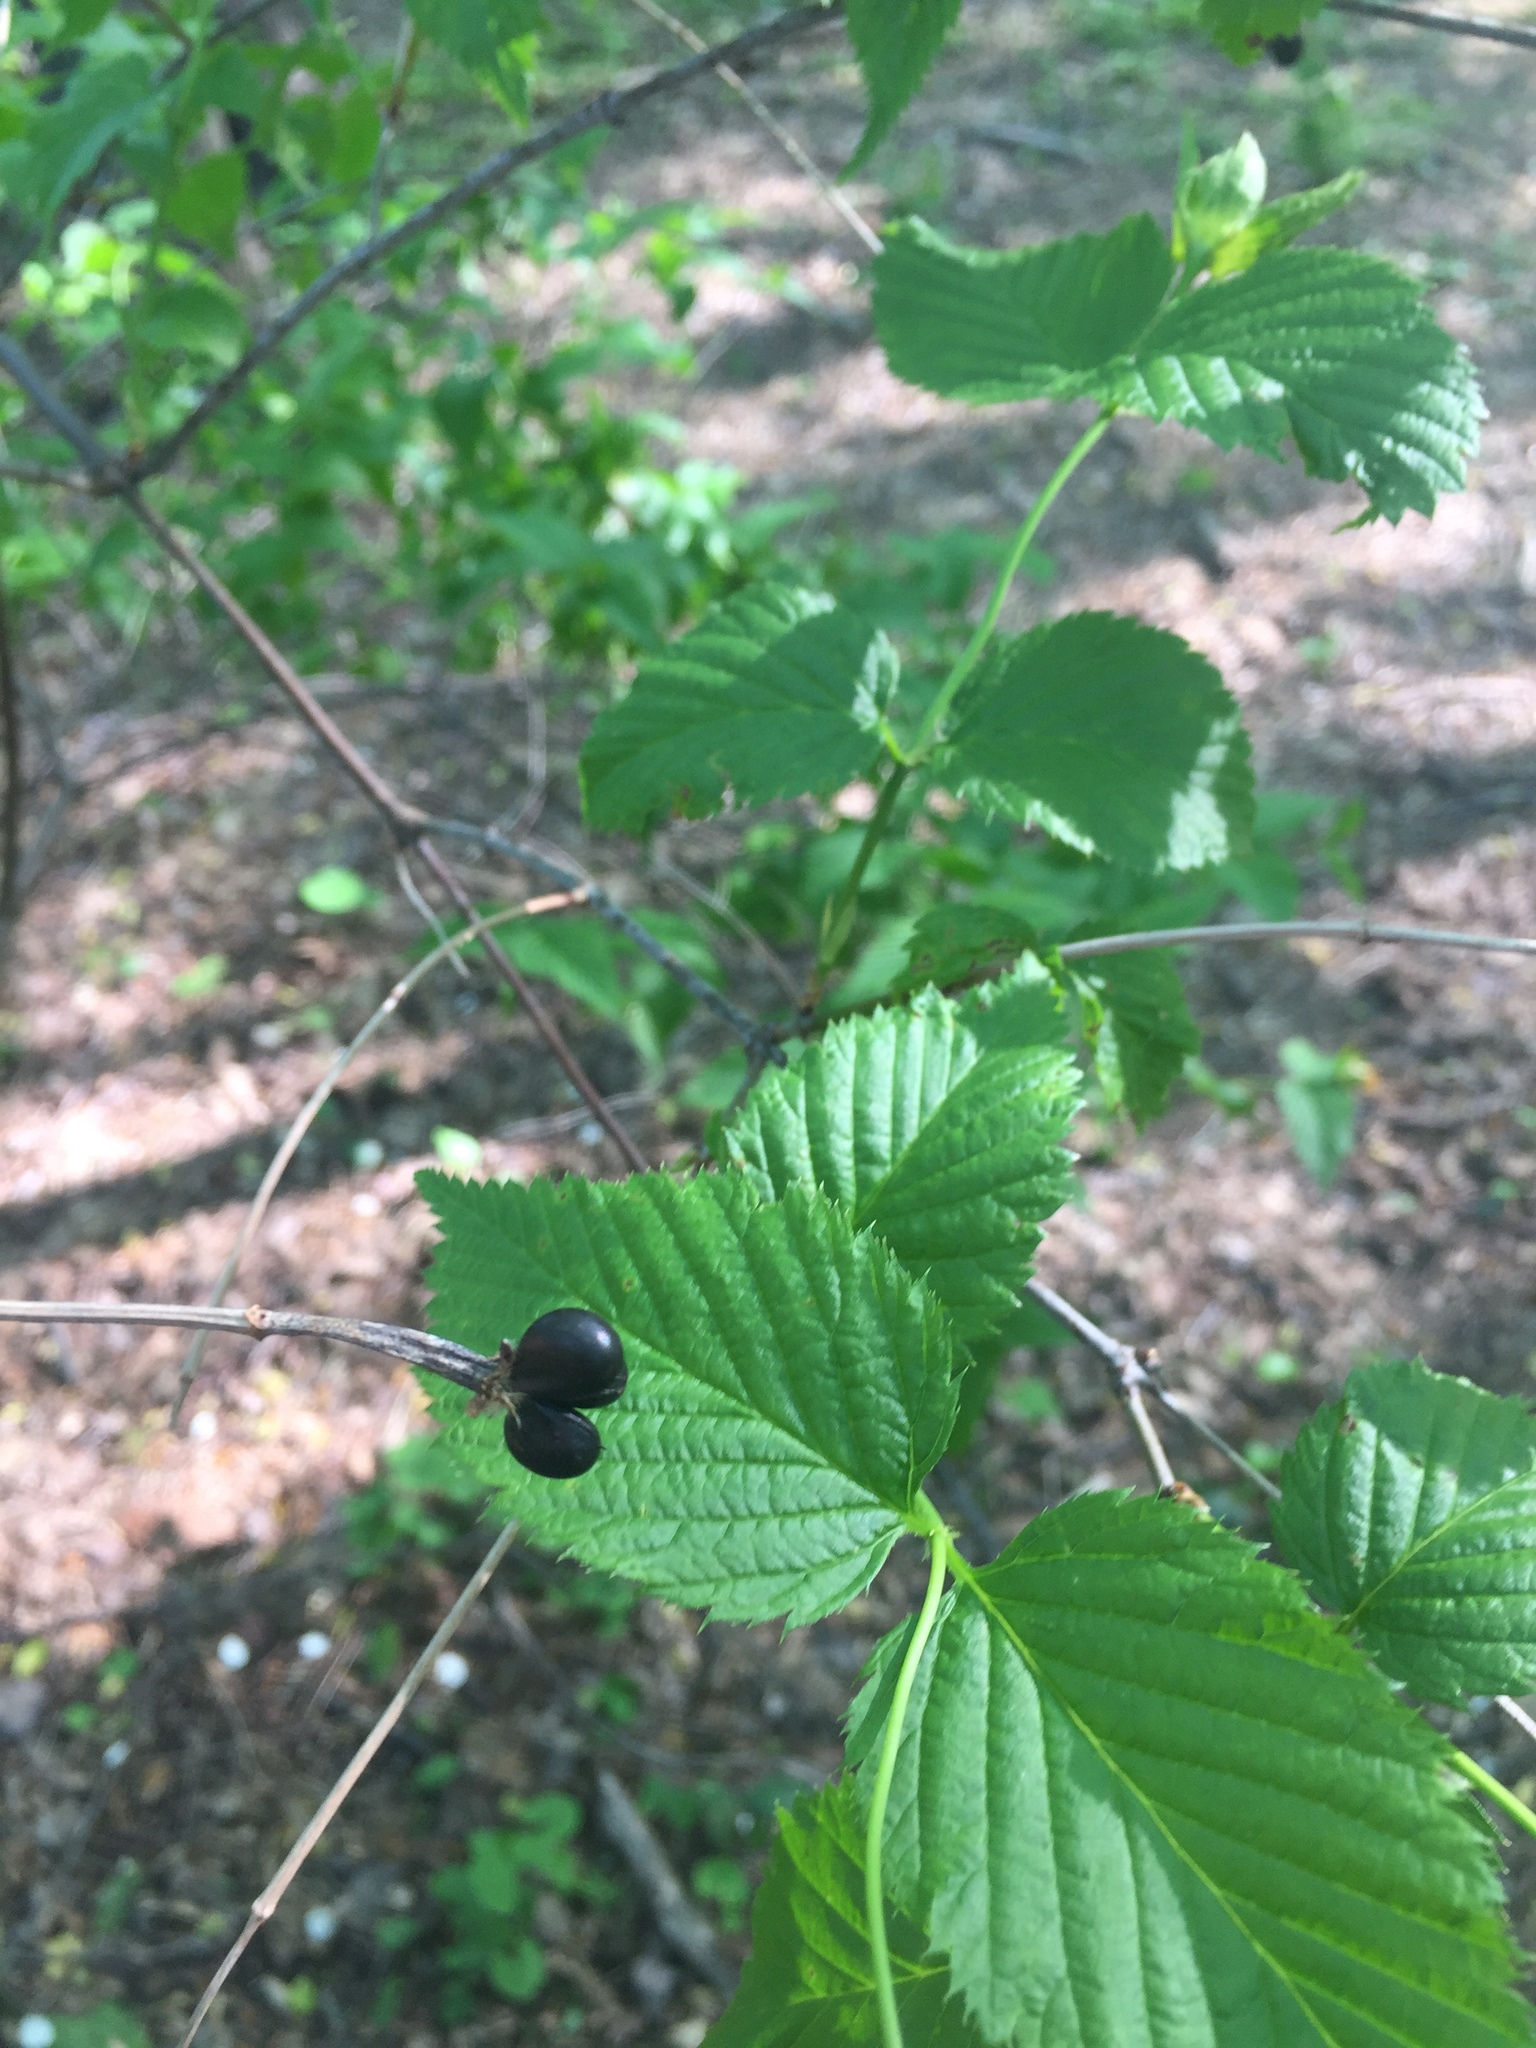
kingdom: Plantae
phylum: Tracheophyta
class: Magnoliopsida
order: Rosales
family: Rosaceae
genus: Rhodotypos
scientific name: Rhodotypos scandens
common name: Jetbead
